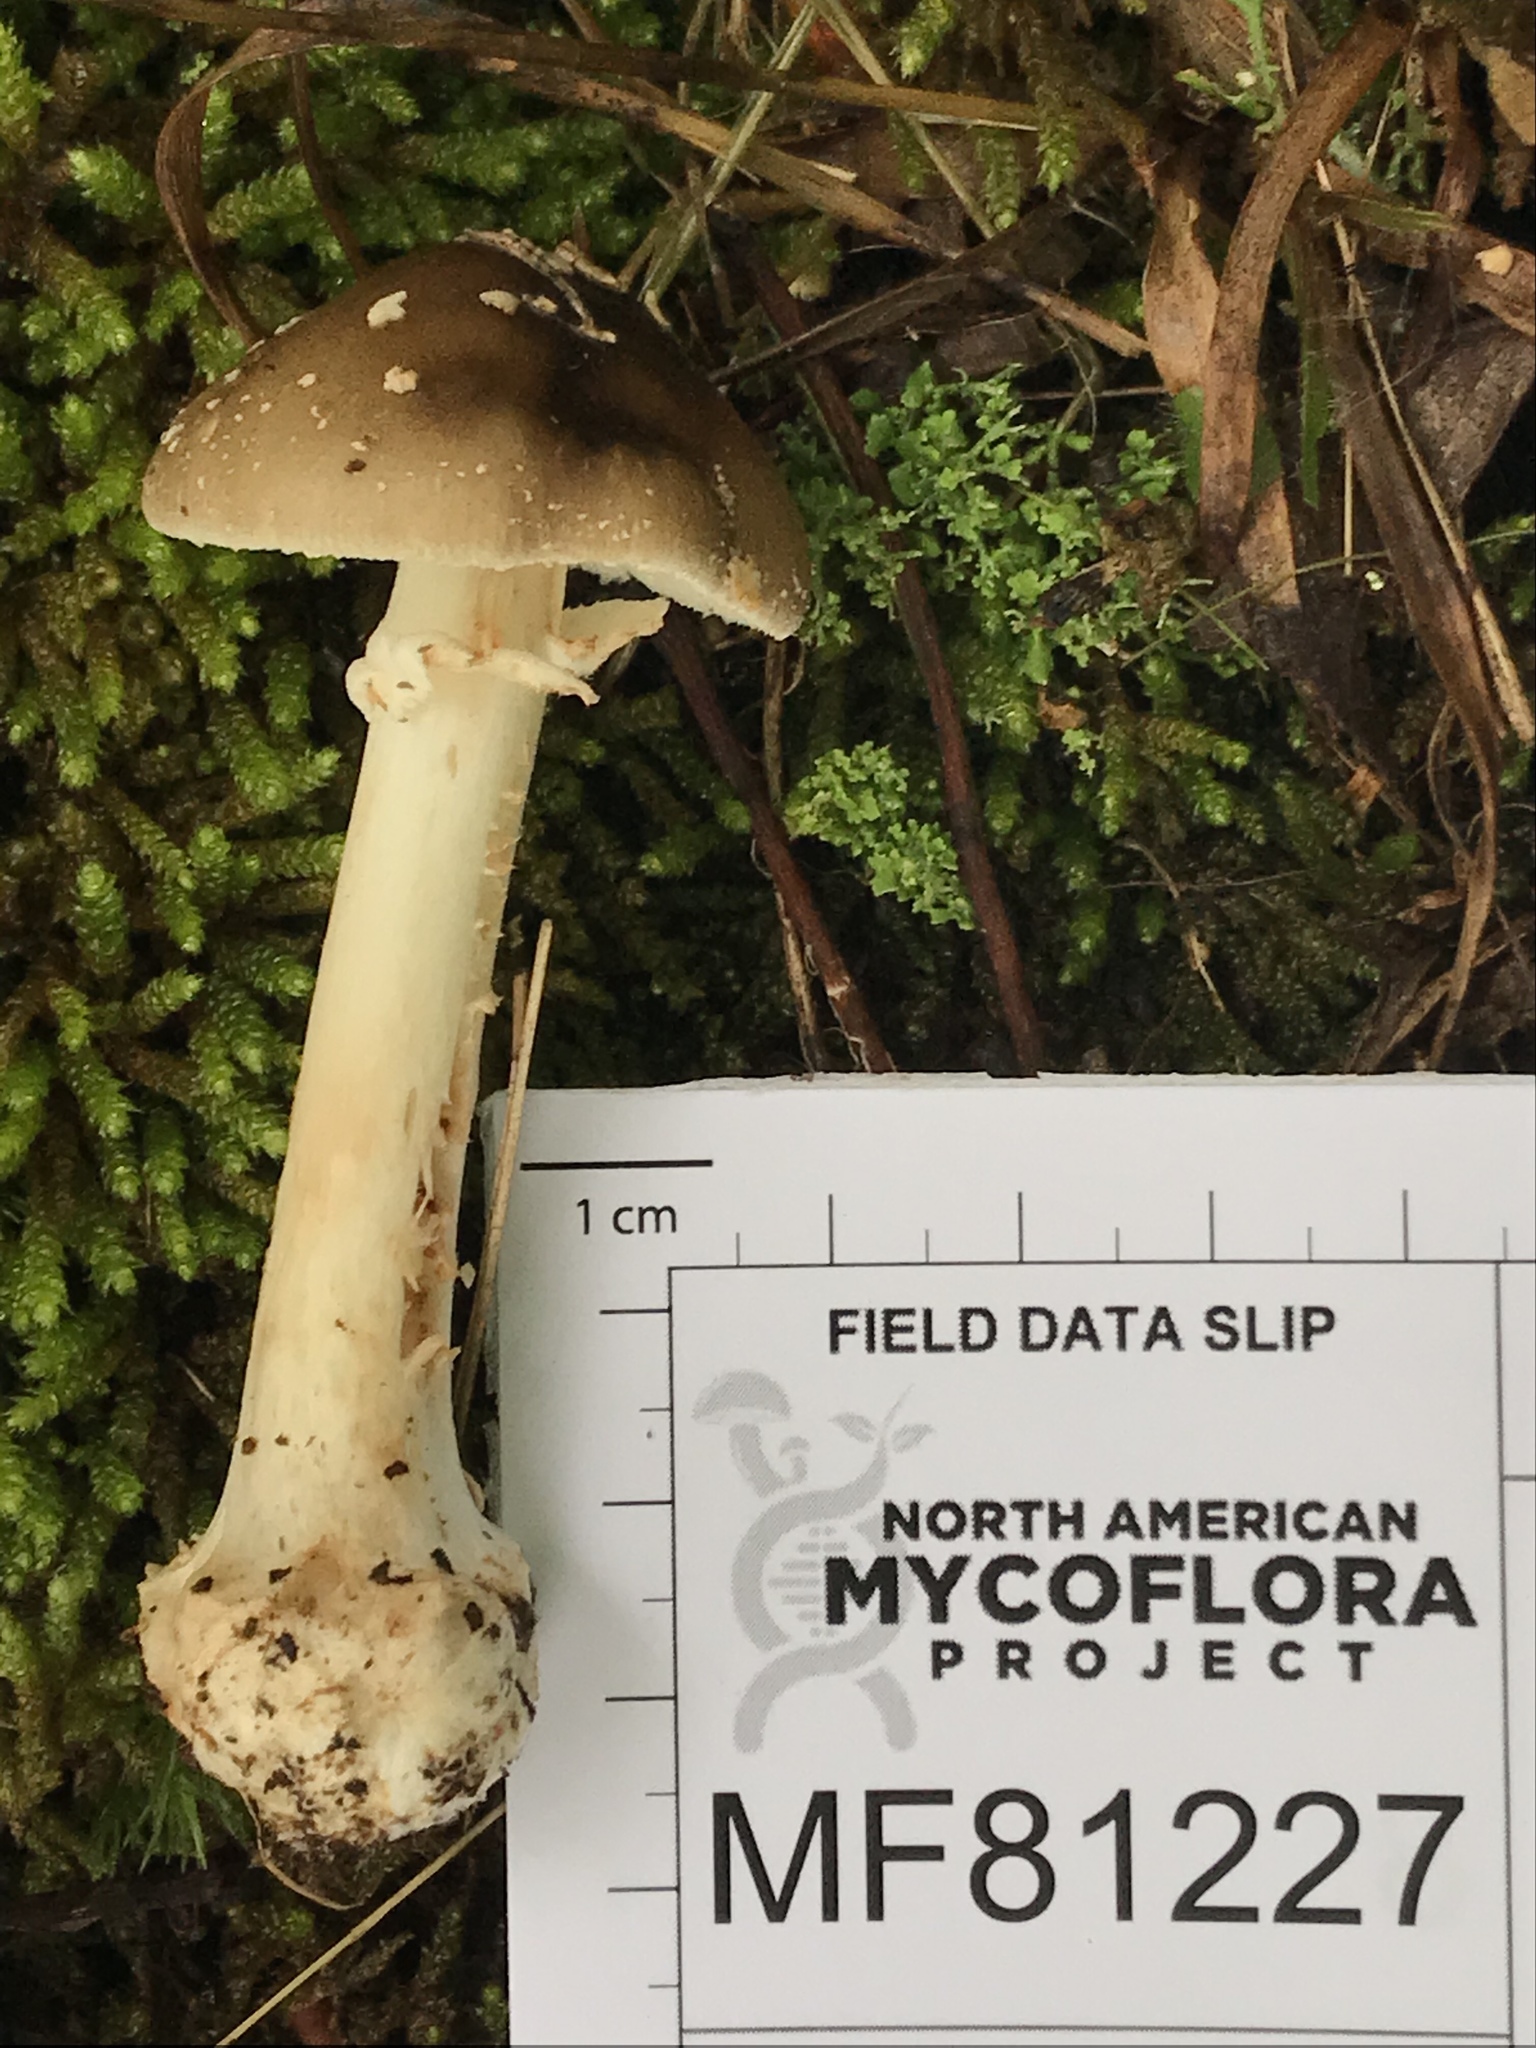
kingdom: Fungi
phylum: Basidiomycota
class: Agaricomycetes
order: Agaricales
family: Amanitaceae
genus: Amanita
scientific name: Amanita brunnescens
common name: Brown american star-footed amanita
